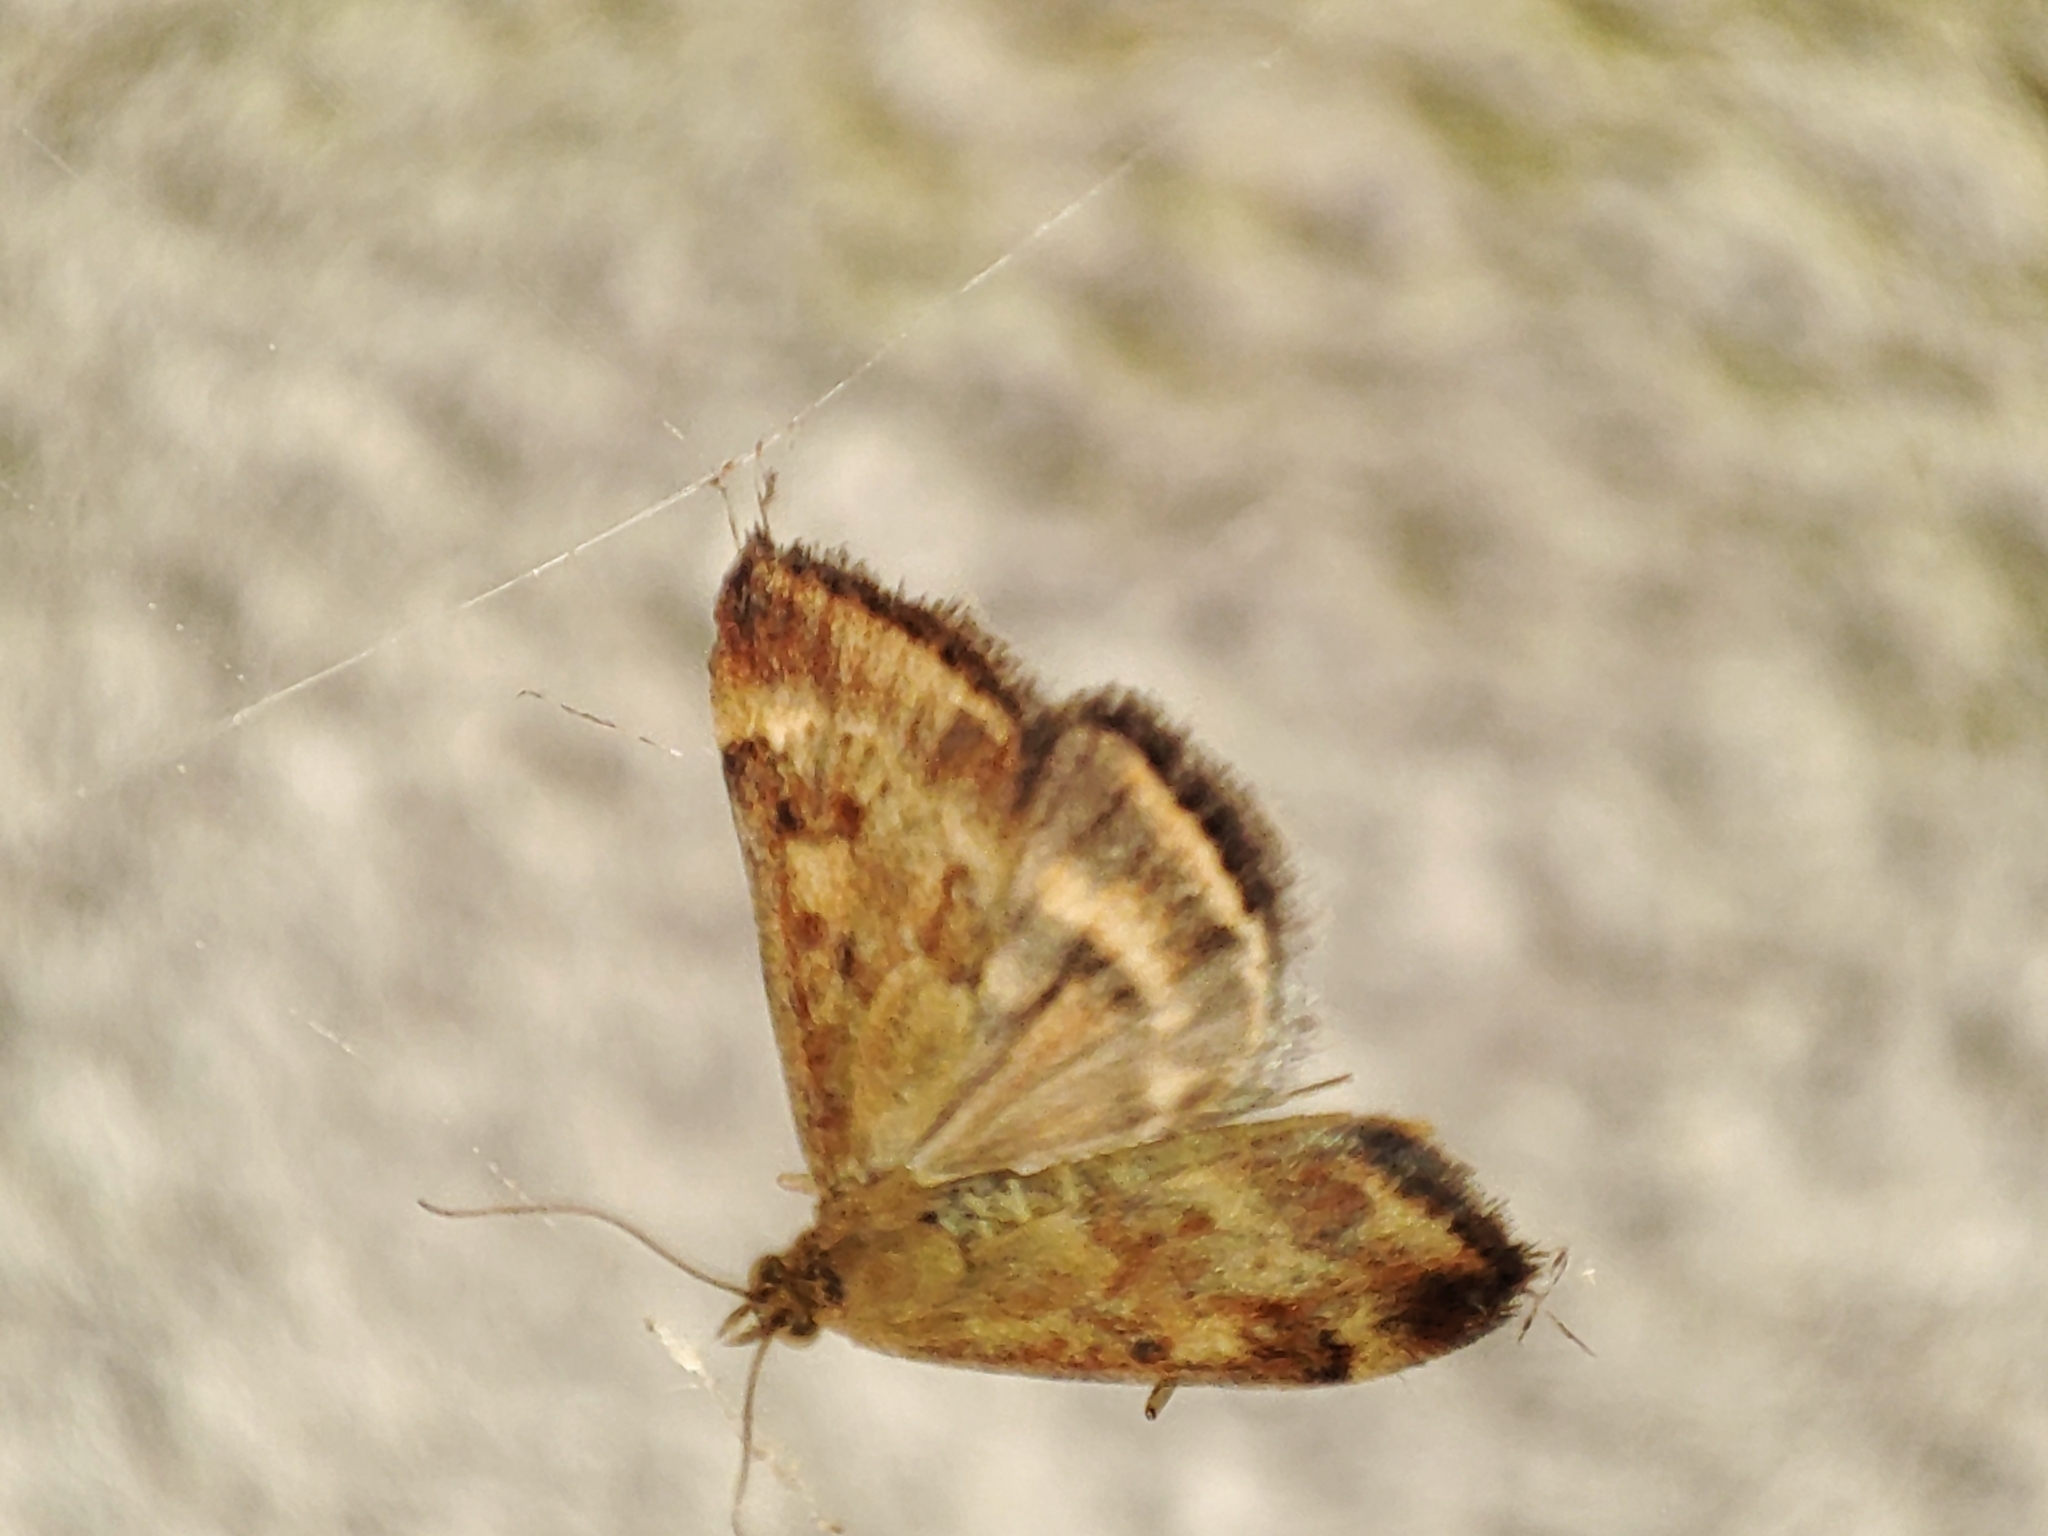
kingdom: Animalia
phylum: Arthropoda
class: Insecta
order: Lepidoptera
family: Crambidae
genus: Pyrausta
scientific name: Pyrausta despicata
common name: Straw-barred pearl
